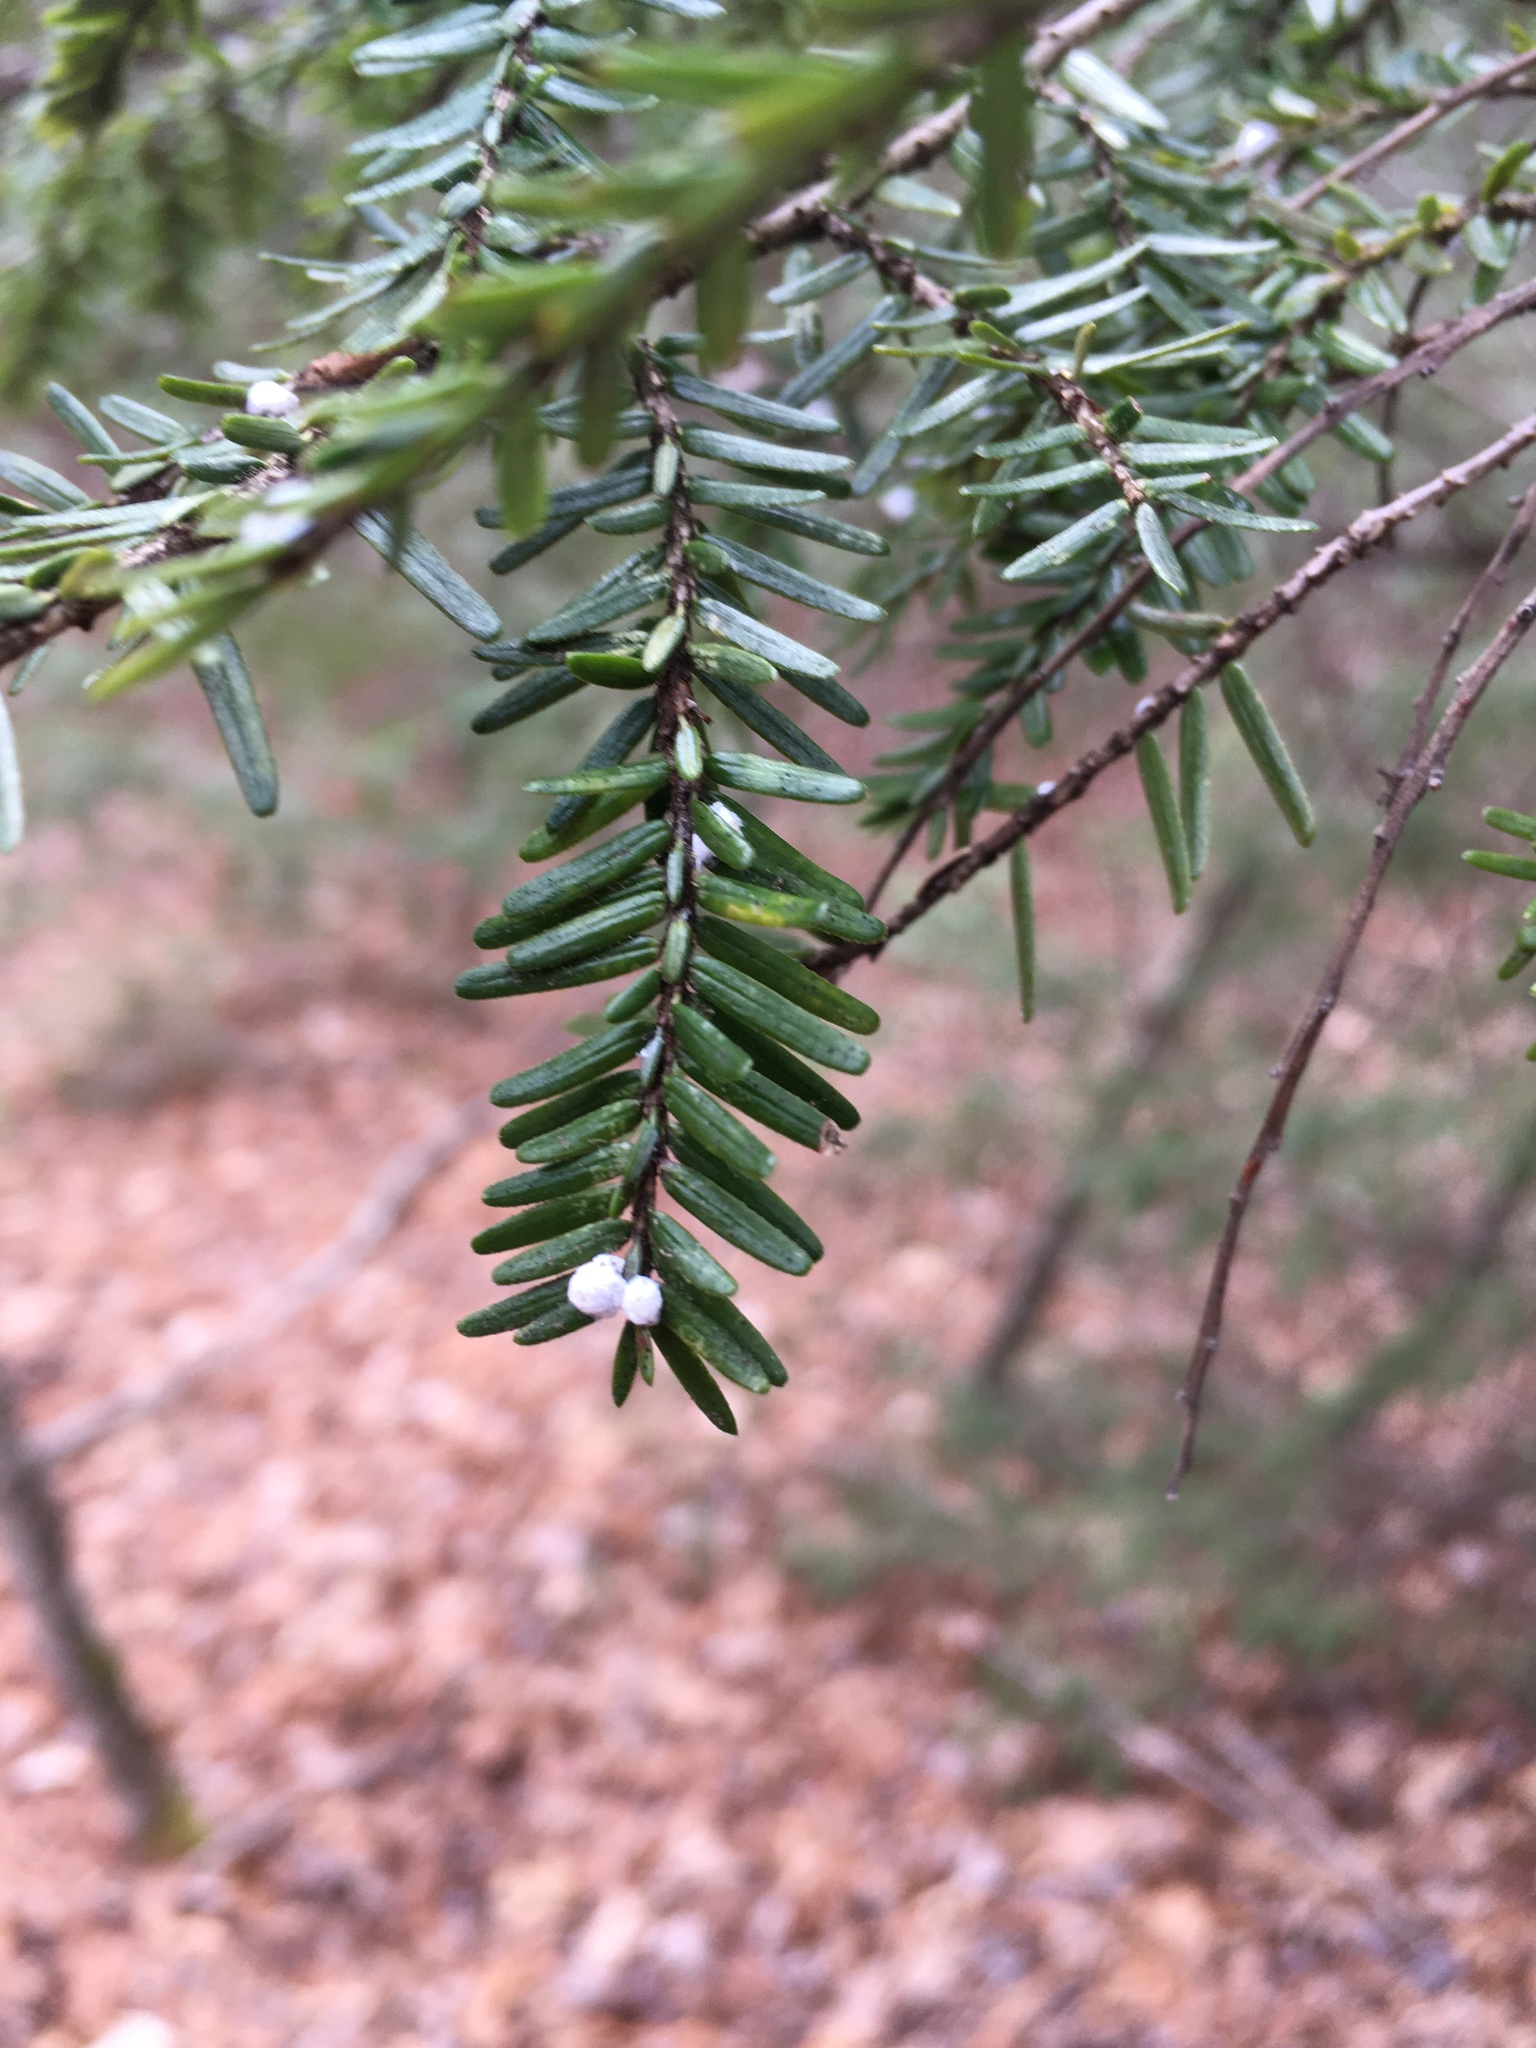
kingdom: Animalia
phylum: Arthropoda
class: Insecta
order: Hemiptera
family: Adelgidae
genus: Adelges
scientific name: Adelges tsugae
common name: Hemlock woolly adelgid
